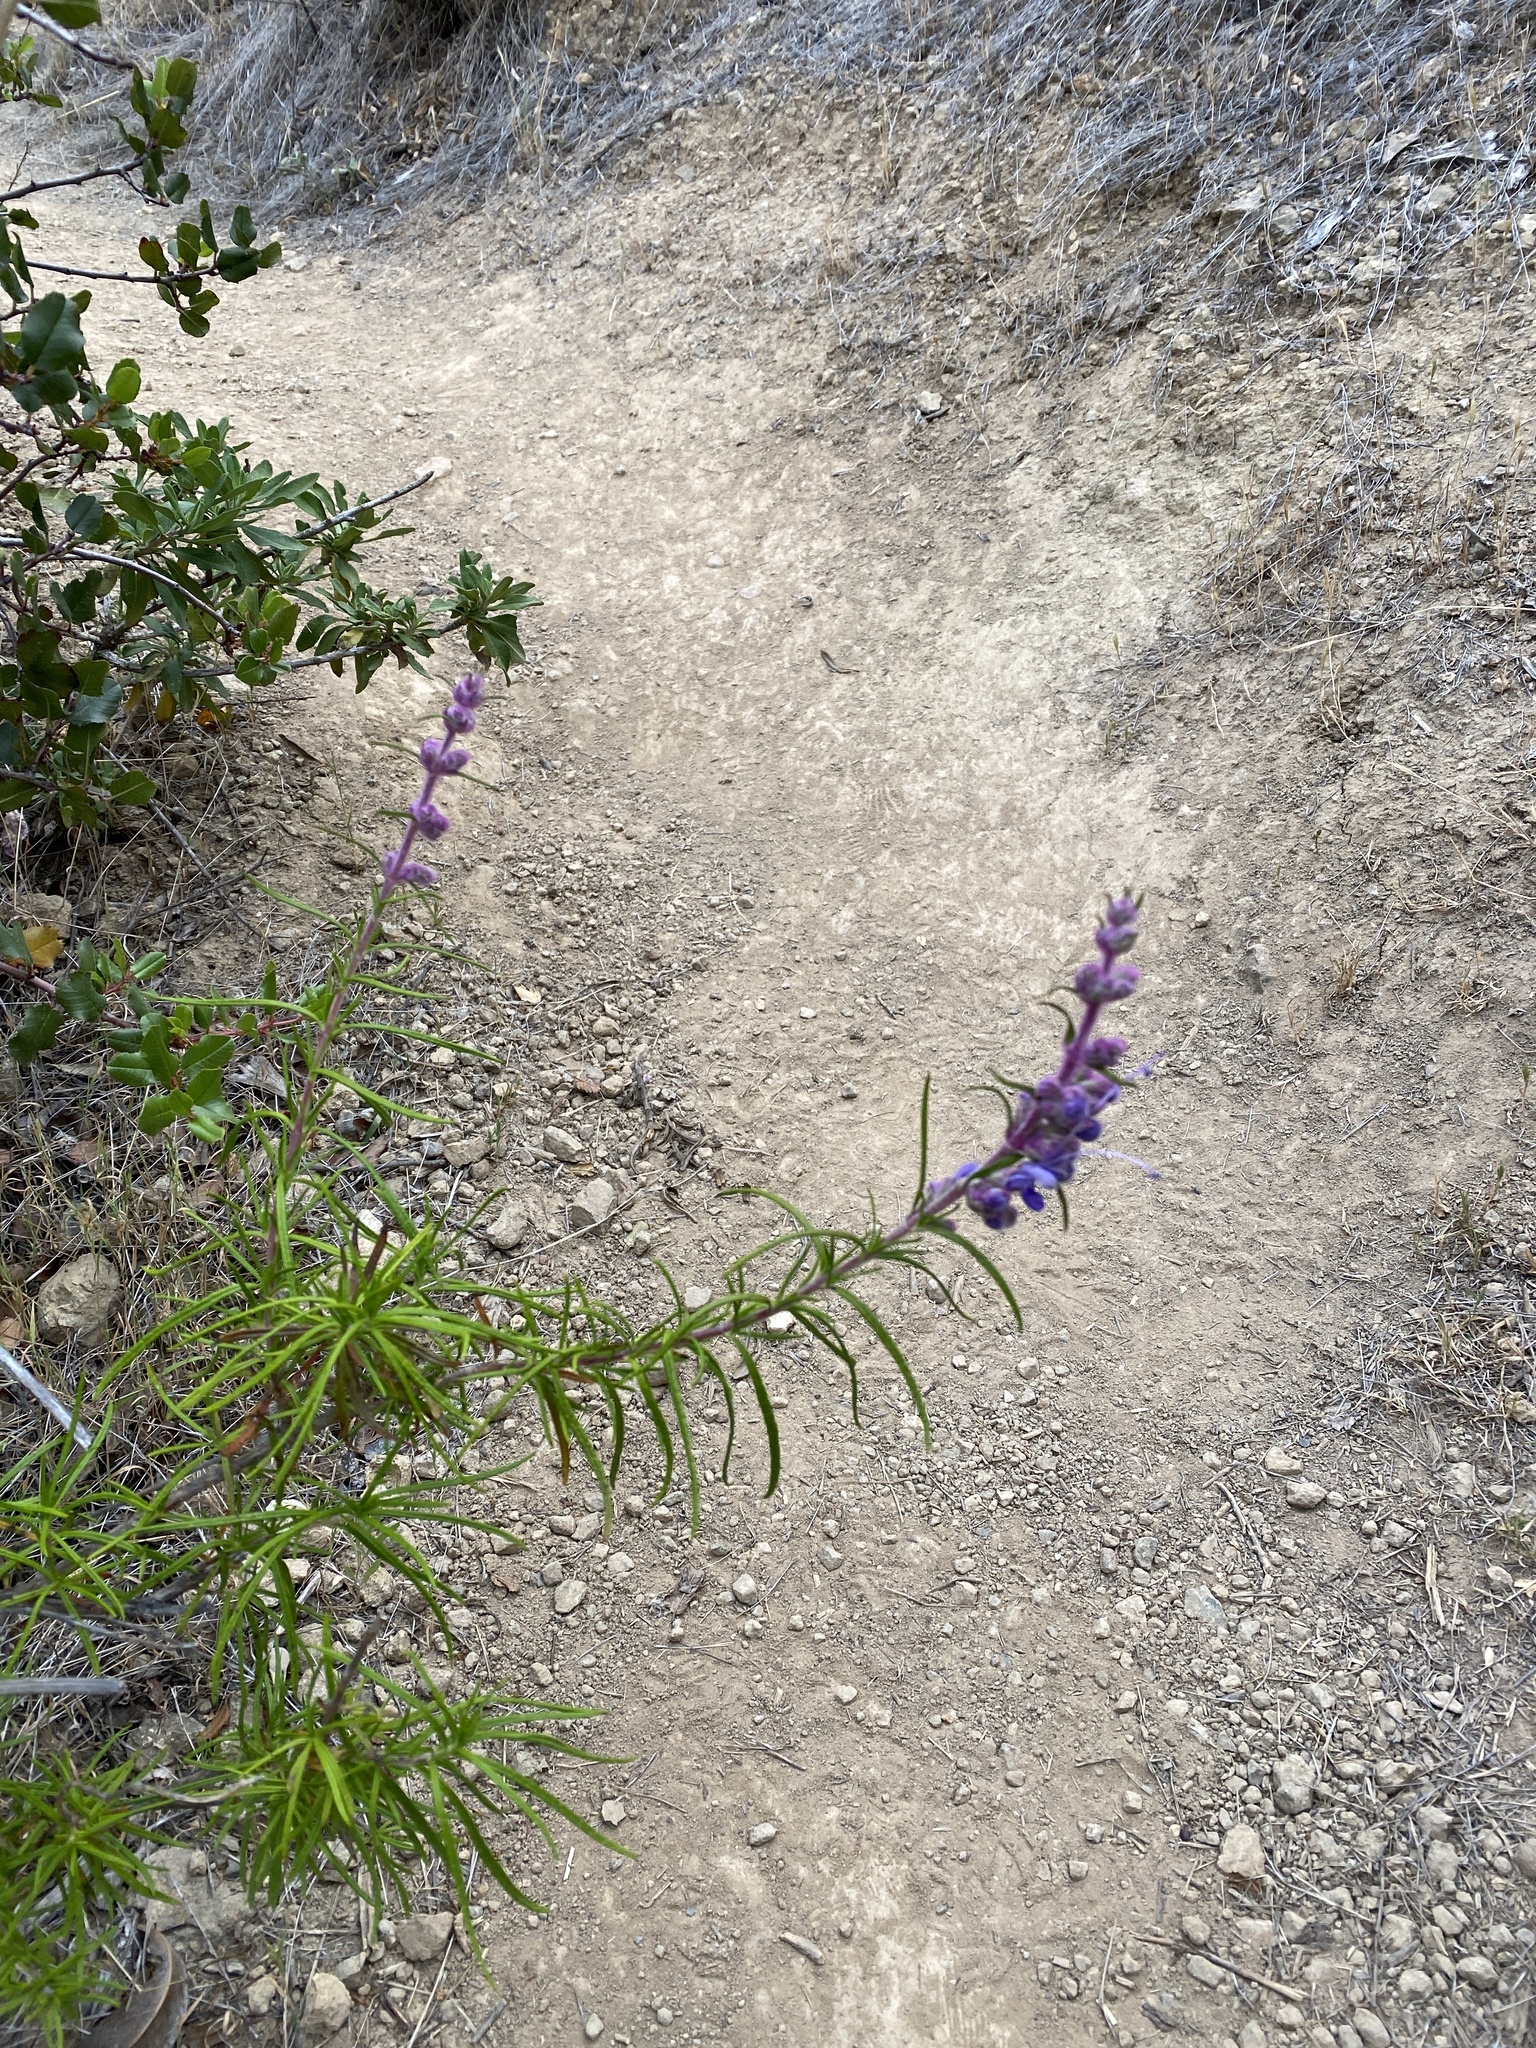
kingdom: Plantae
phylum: Tracheophyta
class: Magnoliopsida
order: Lamiales
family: Lamiaceae
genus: Trichostema
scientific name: Trichostema lanatum
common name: Woolly bluecurls
